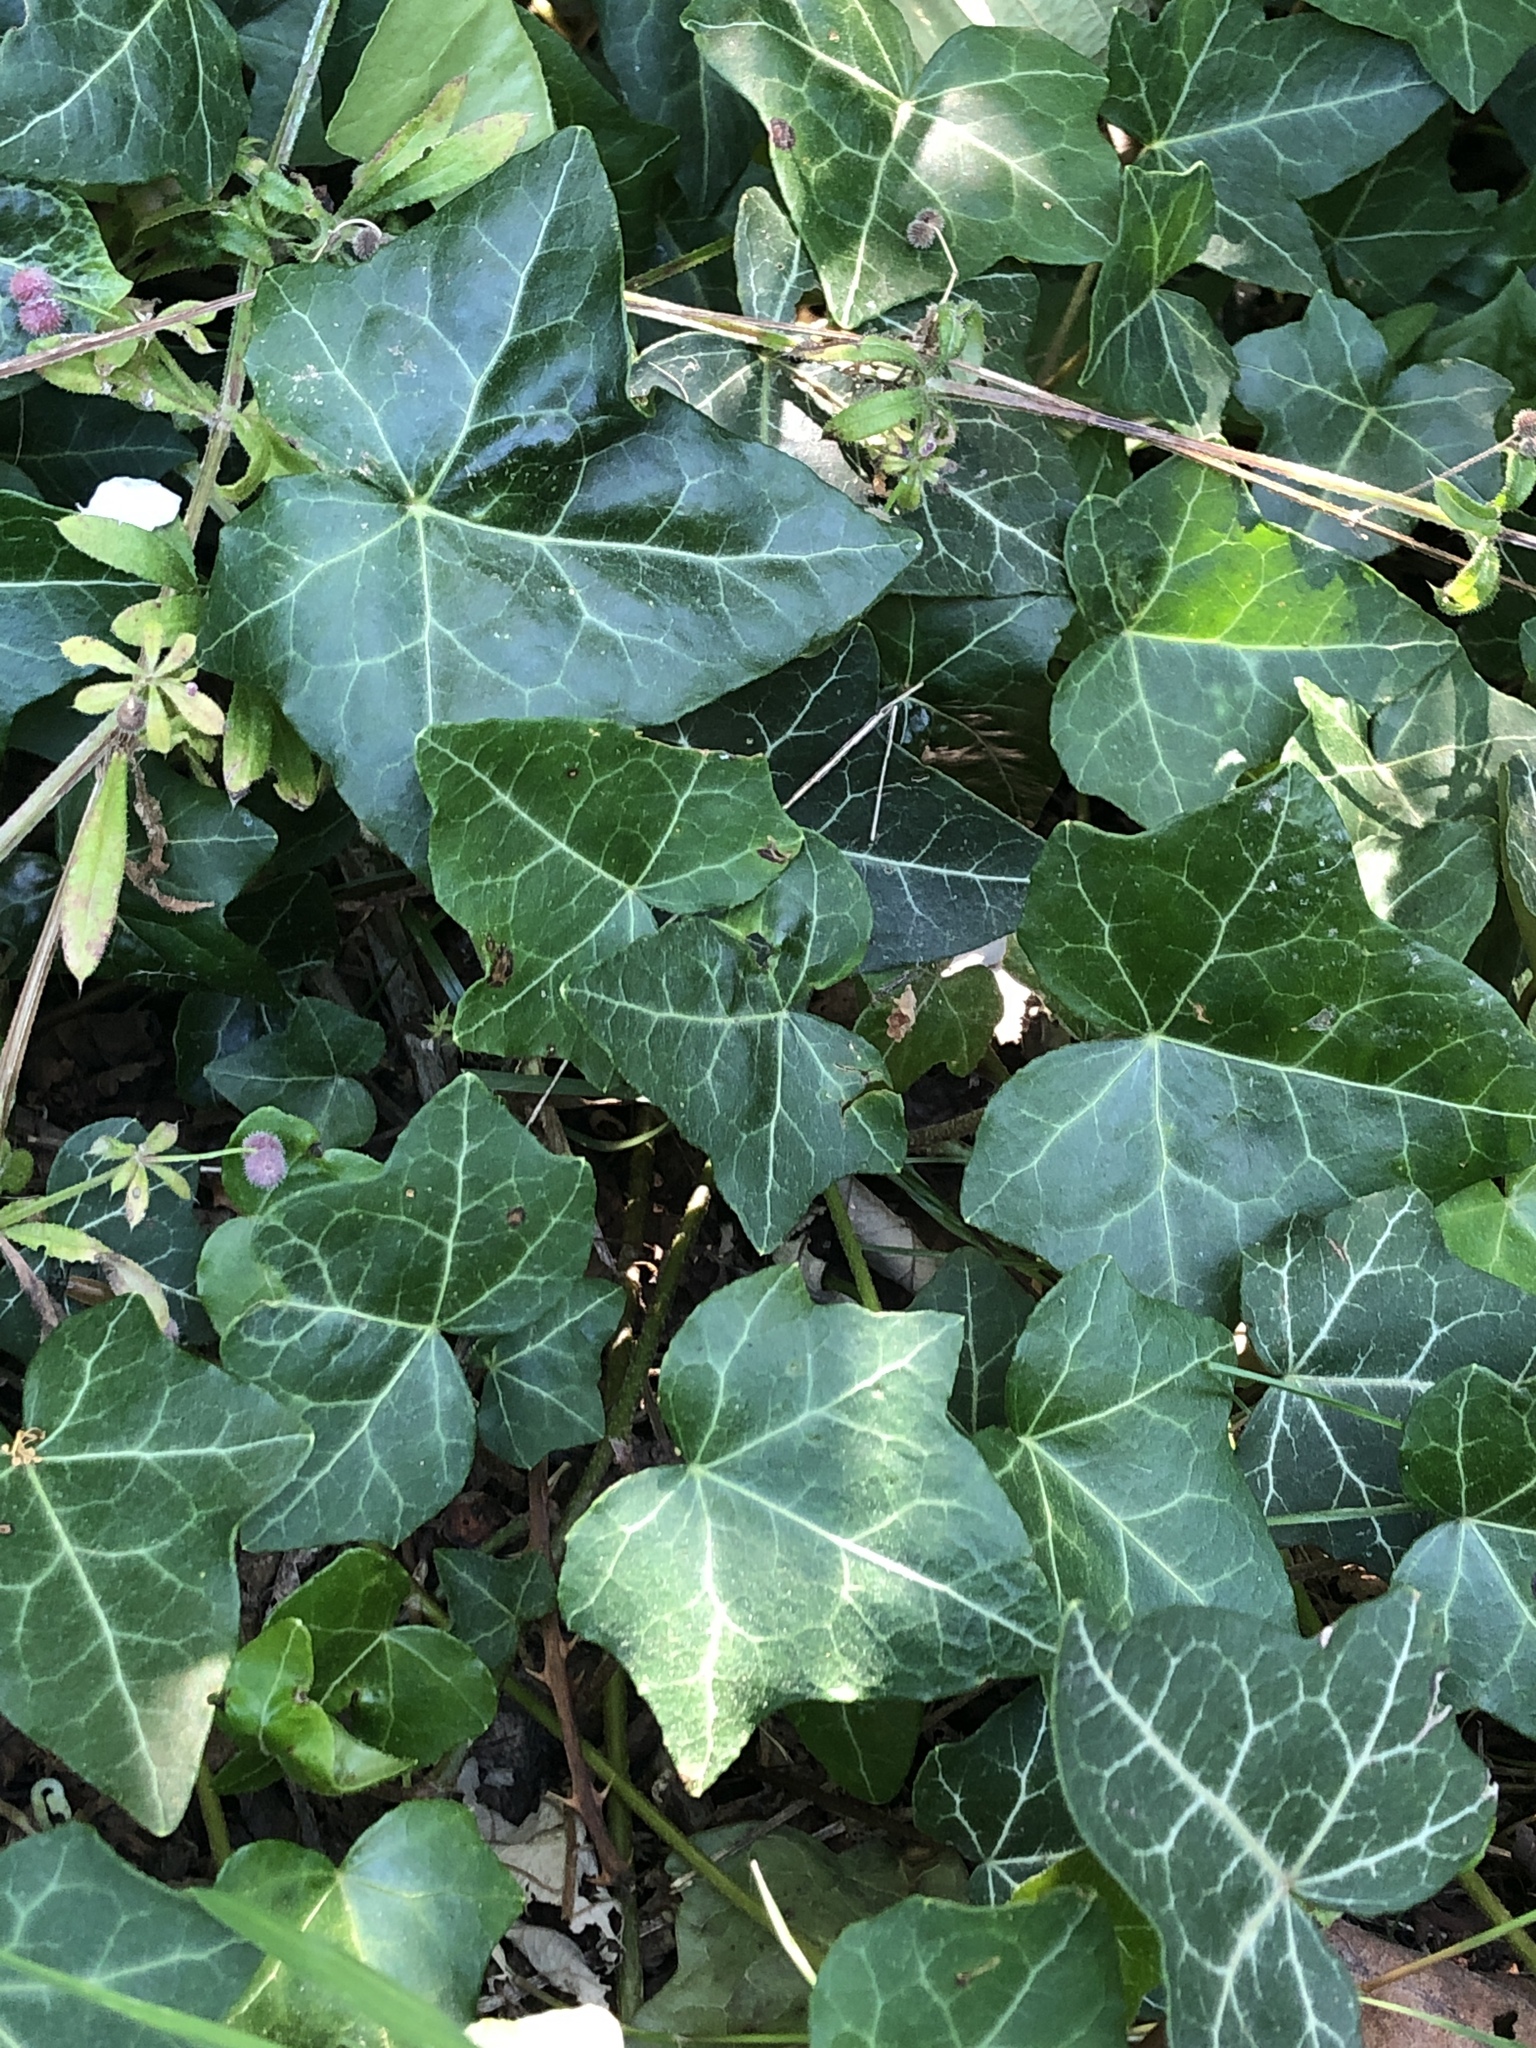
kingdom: Plantae
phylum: Tracheophyta
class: Magnoliopsida
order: Apiales
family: Araliaceae
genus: Hedera
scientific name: Hedera helix
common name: Ivy
